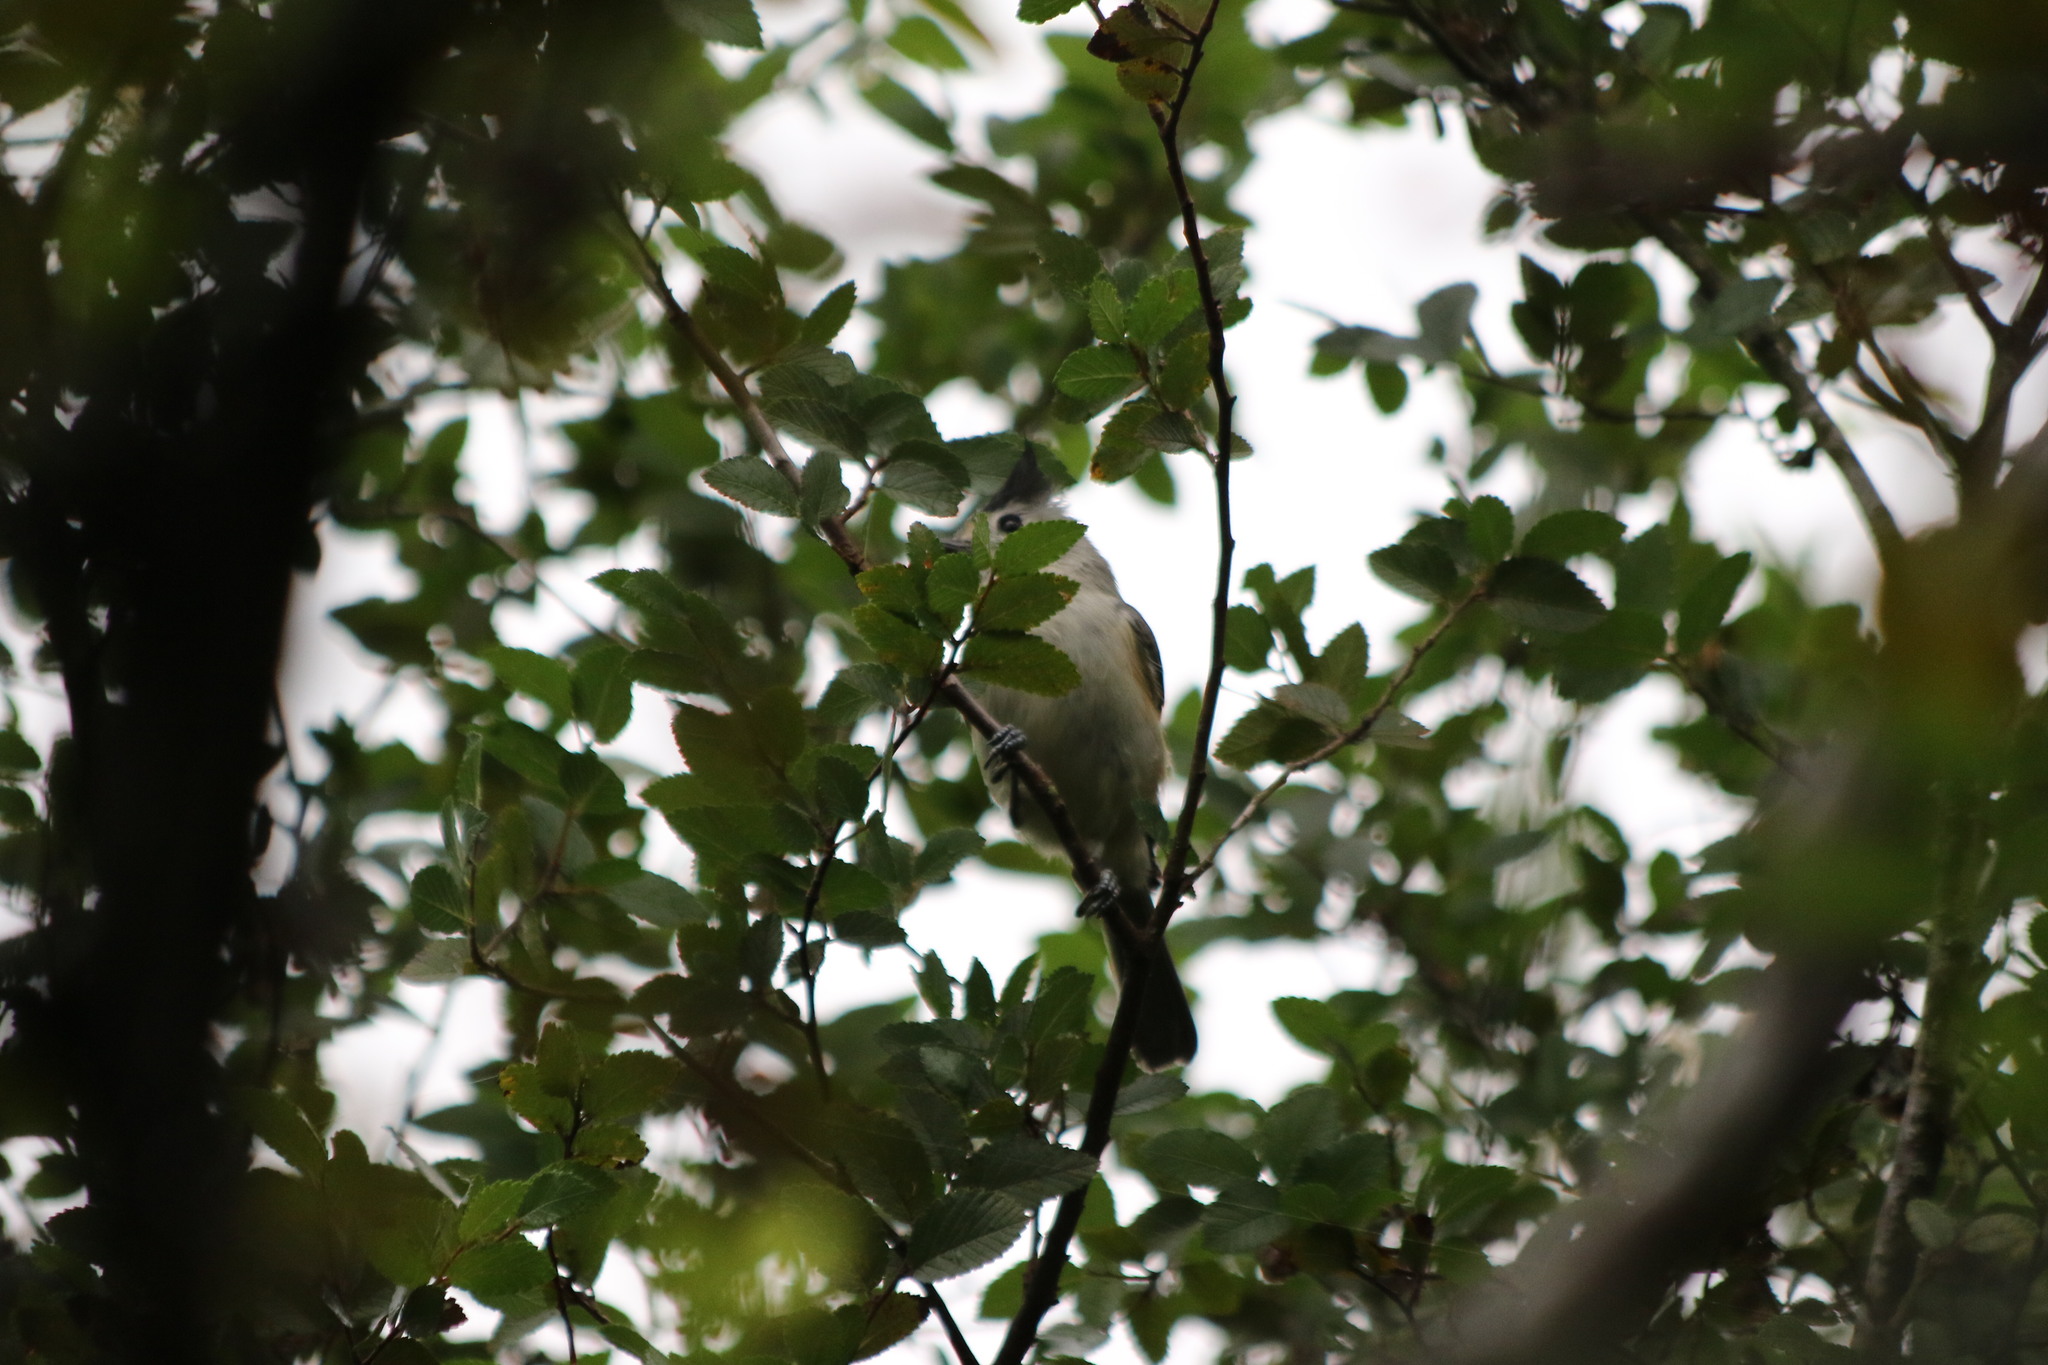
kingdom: Animalia
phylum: Chordata
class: Aves
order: Passeriformes
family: Paridae
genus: Baeolophus
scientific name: Baeolophus atricristatus
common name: Black-crested titmouse
